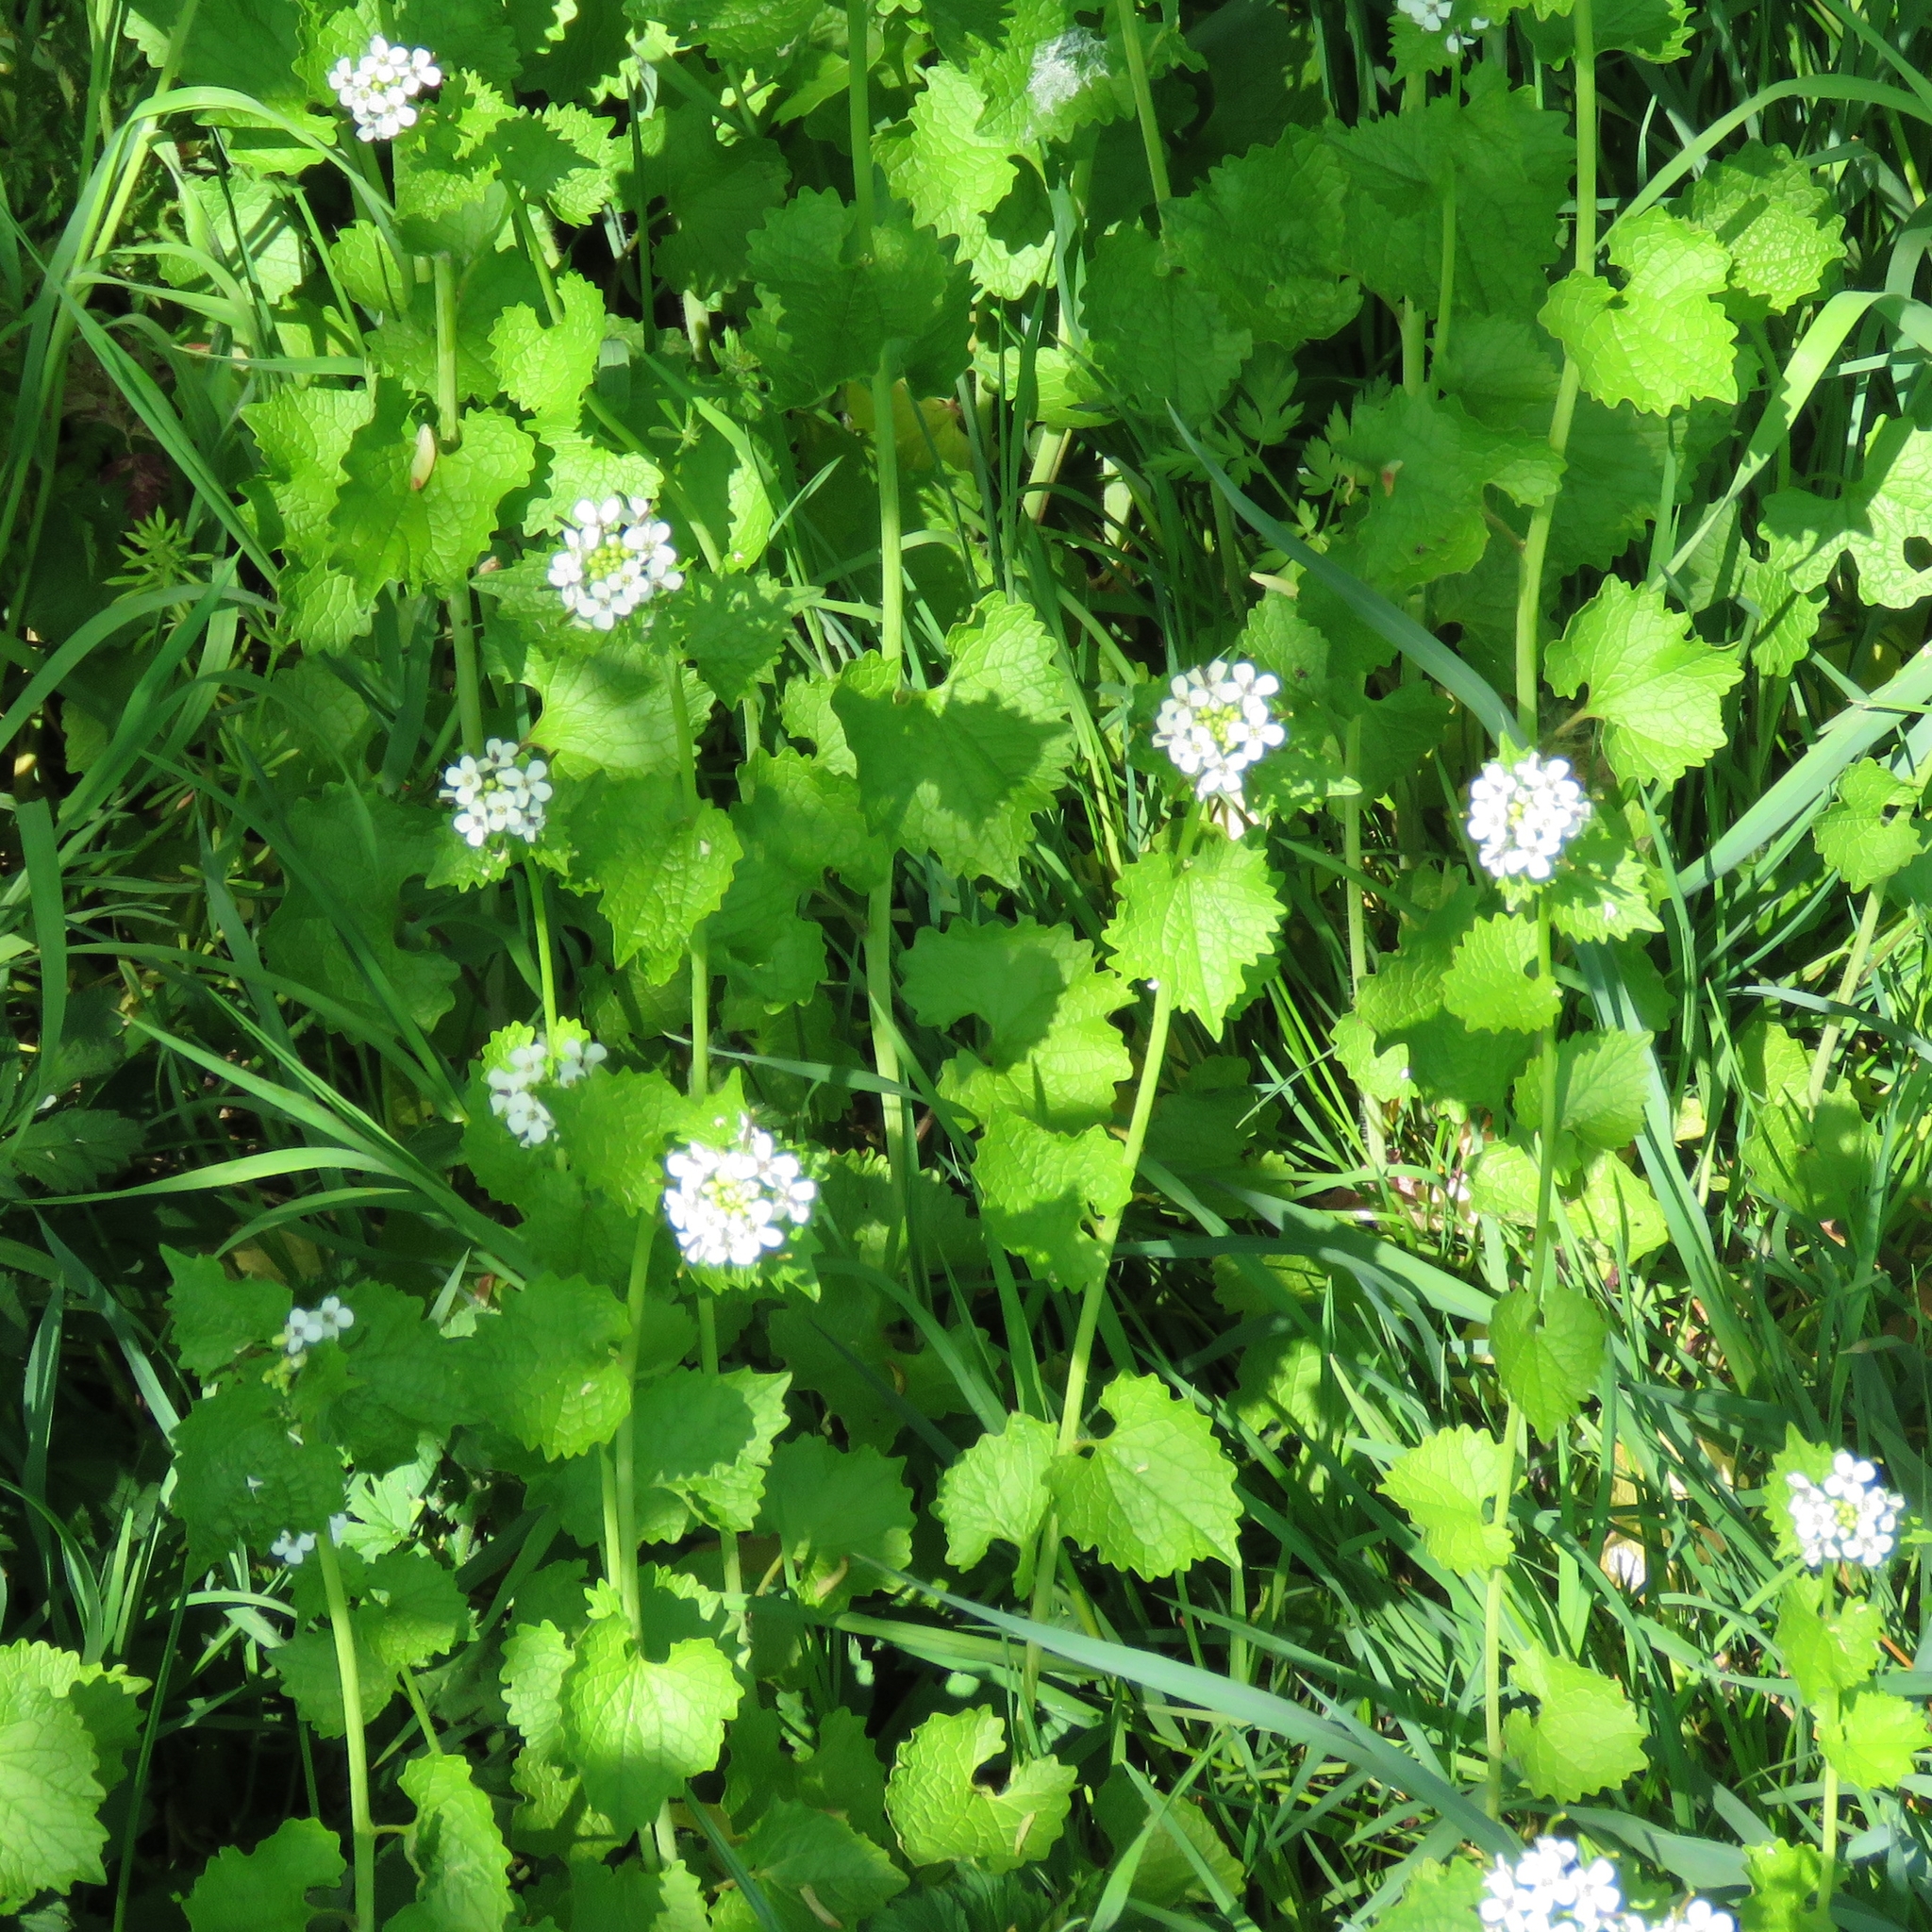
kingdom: Plantae
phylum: Tracheophyta
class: Magnoliopsida
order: Brassicales
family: Brassicaceae
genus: Alliaria
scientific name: Alliaria petiolata
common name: Garlic mustard
